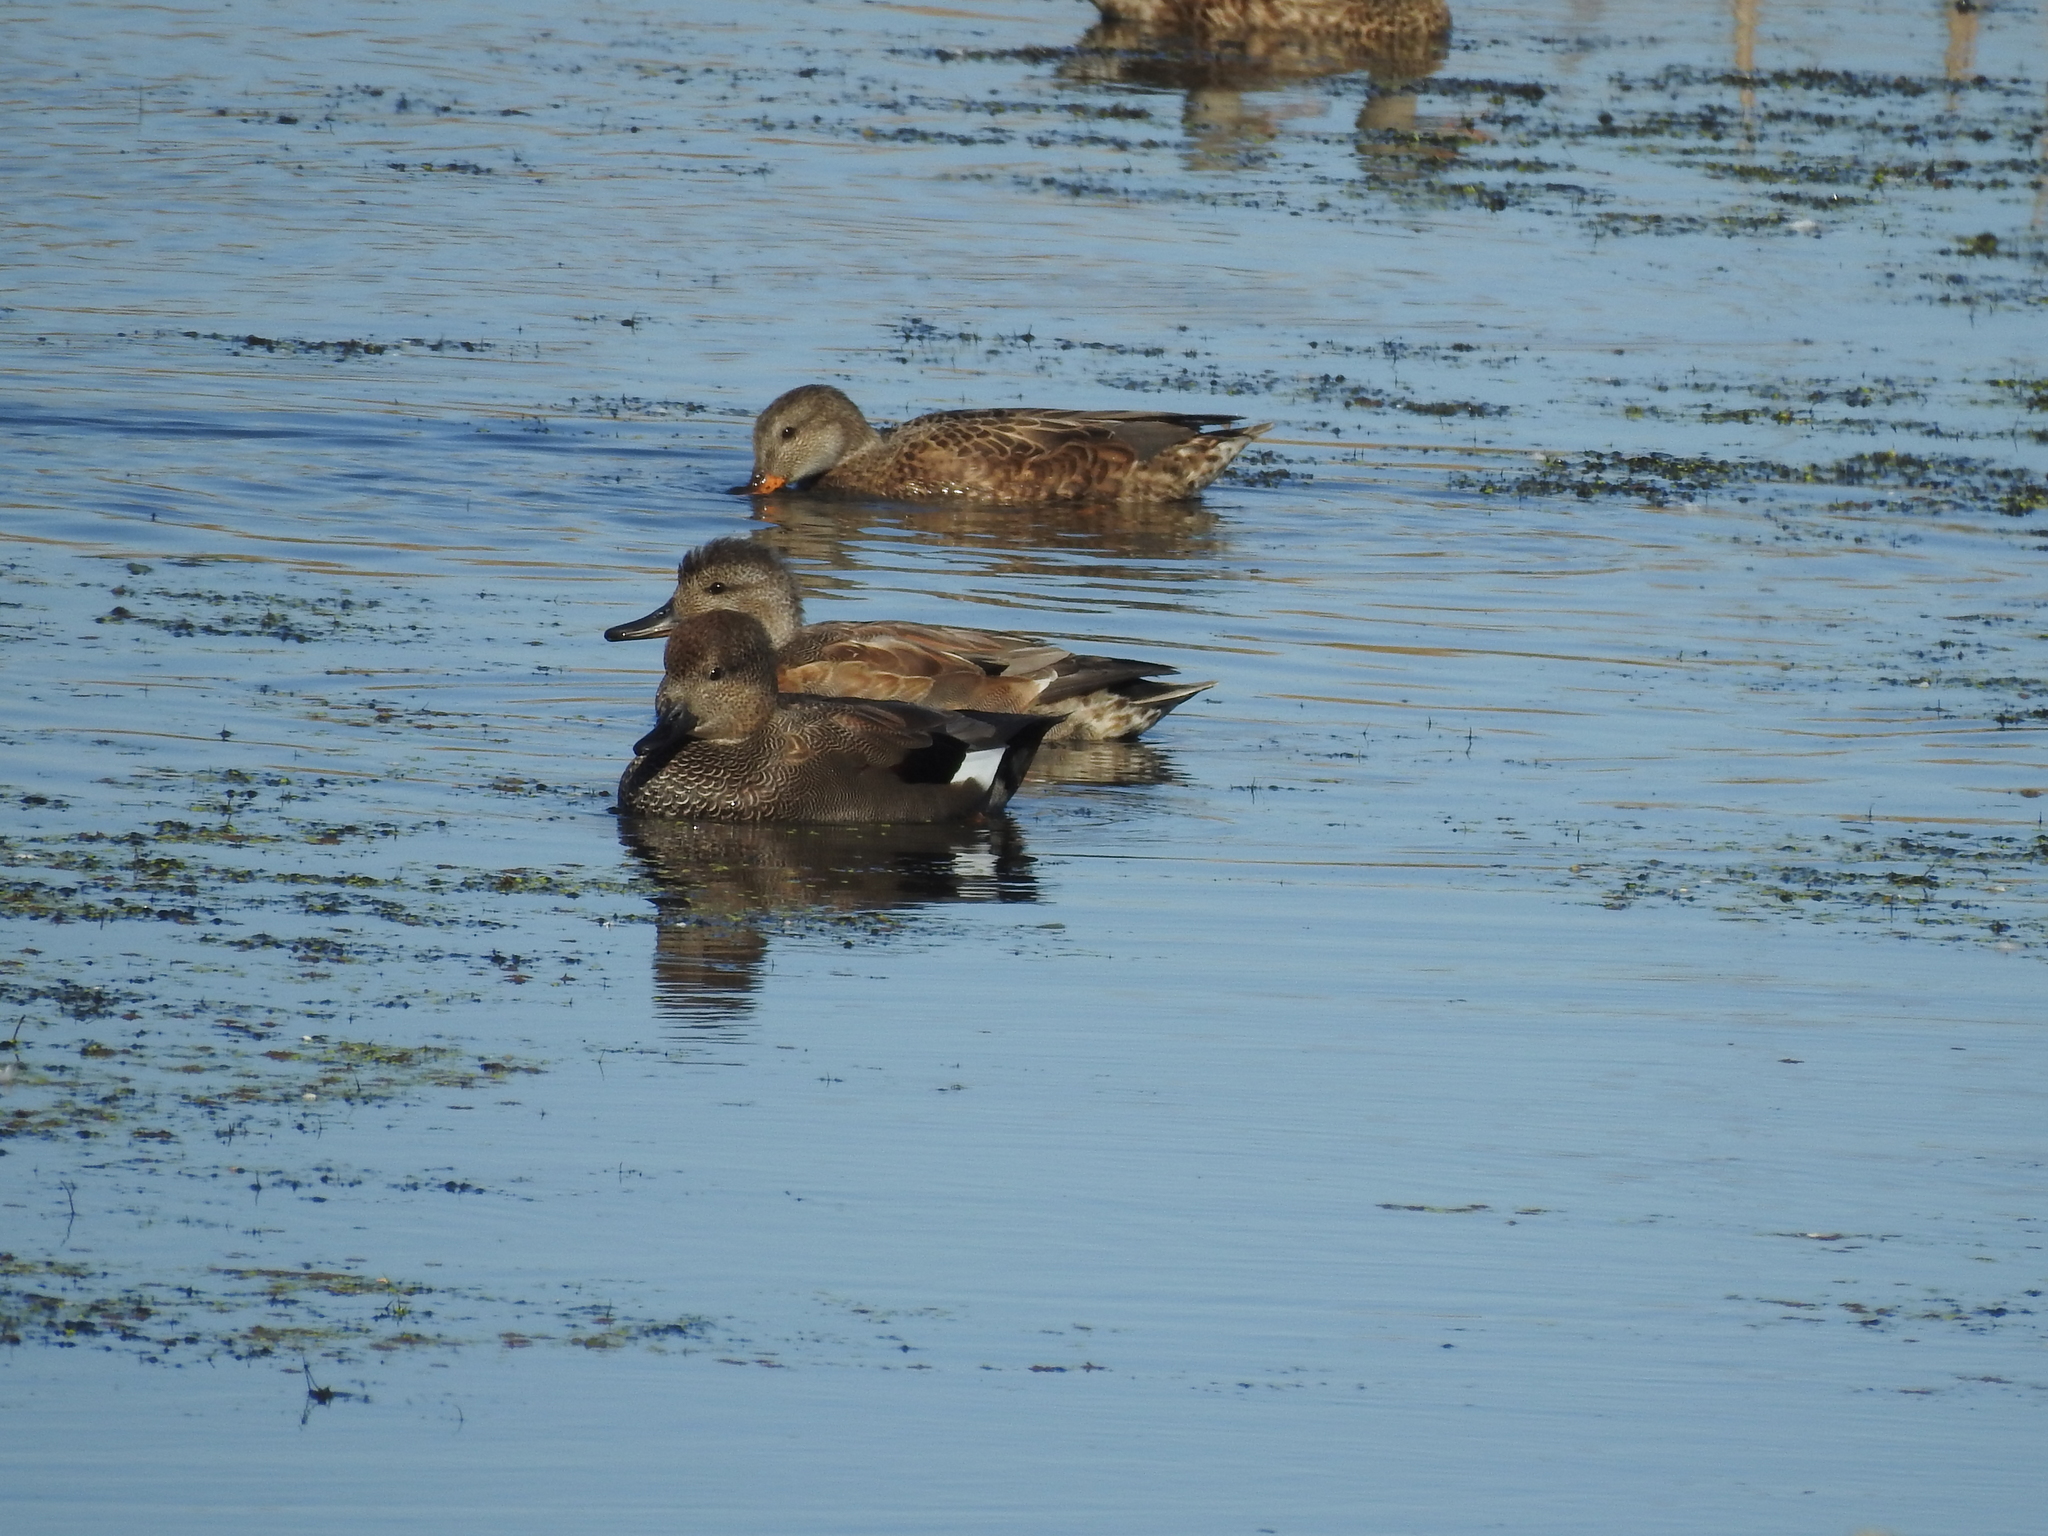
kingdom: Animalia
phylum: Chordata
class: Aves
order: Anseriformes
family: Anatidae
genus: Mareca
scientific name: Mareca strepera
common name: Gadwall
